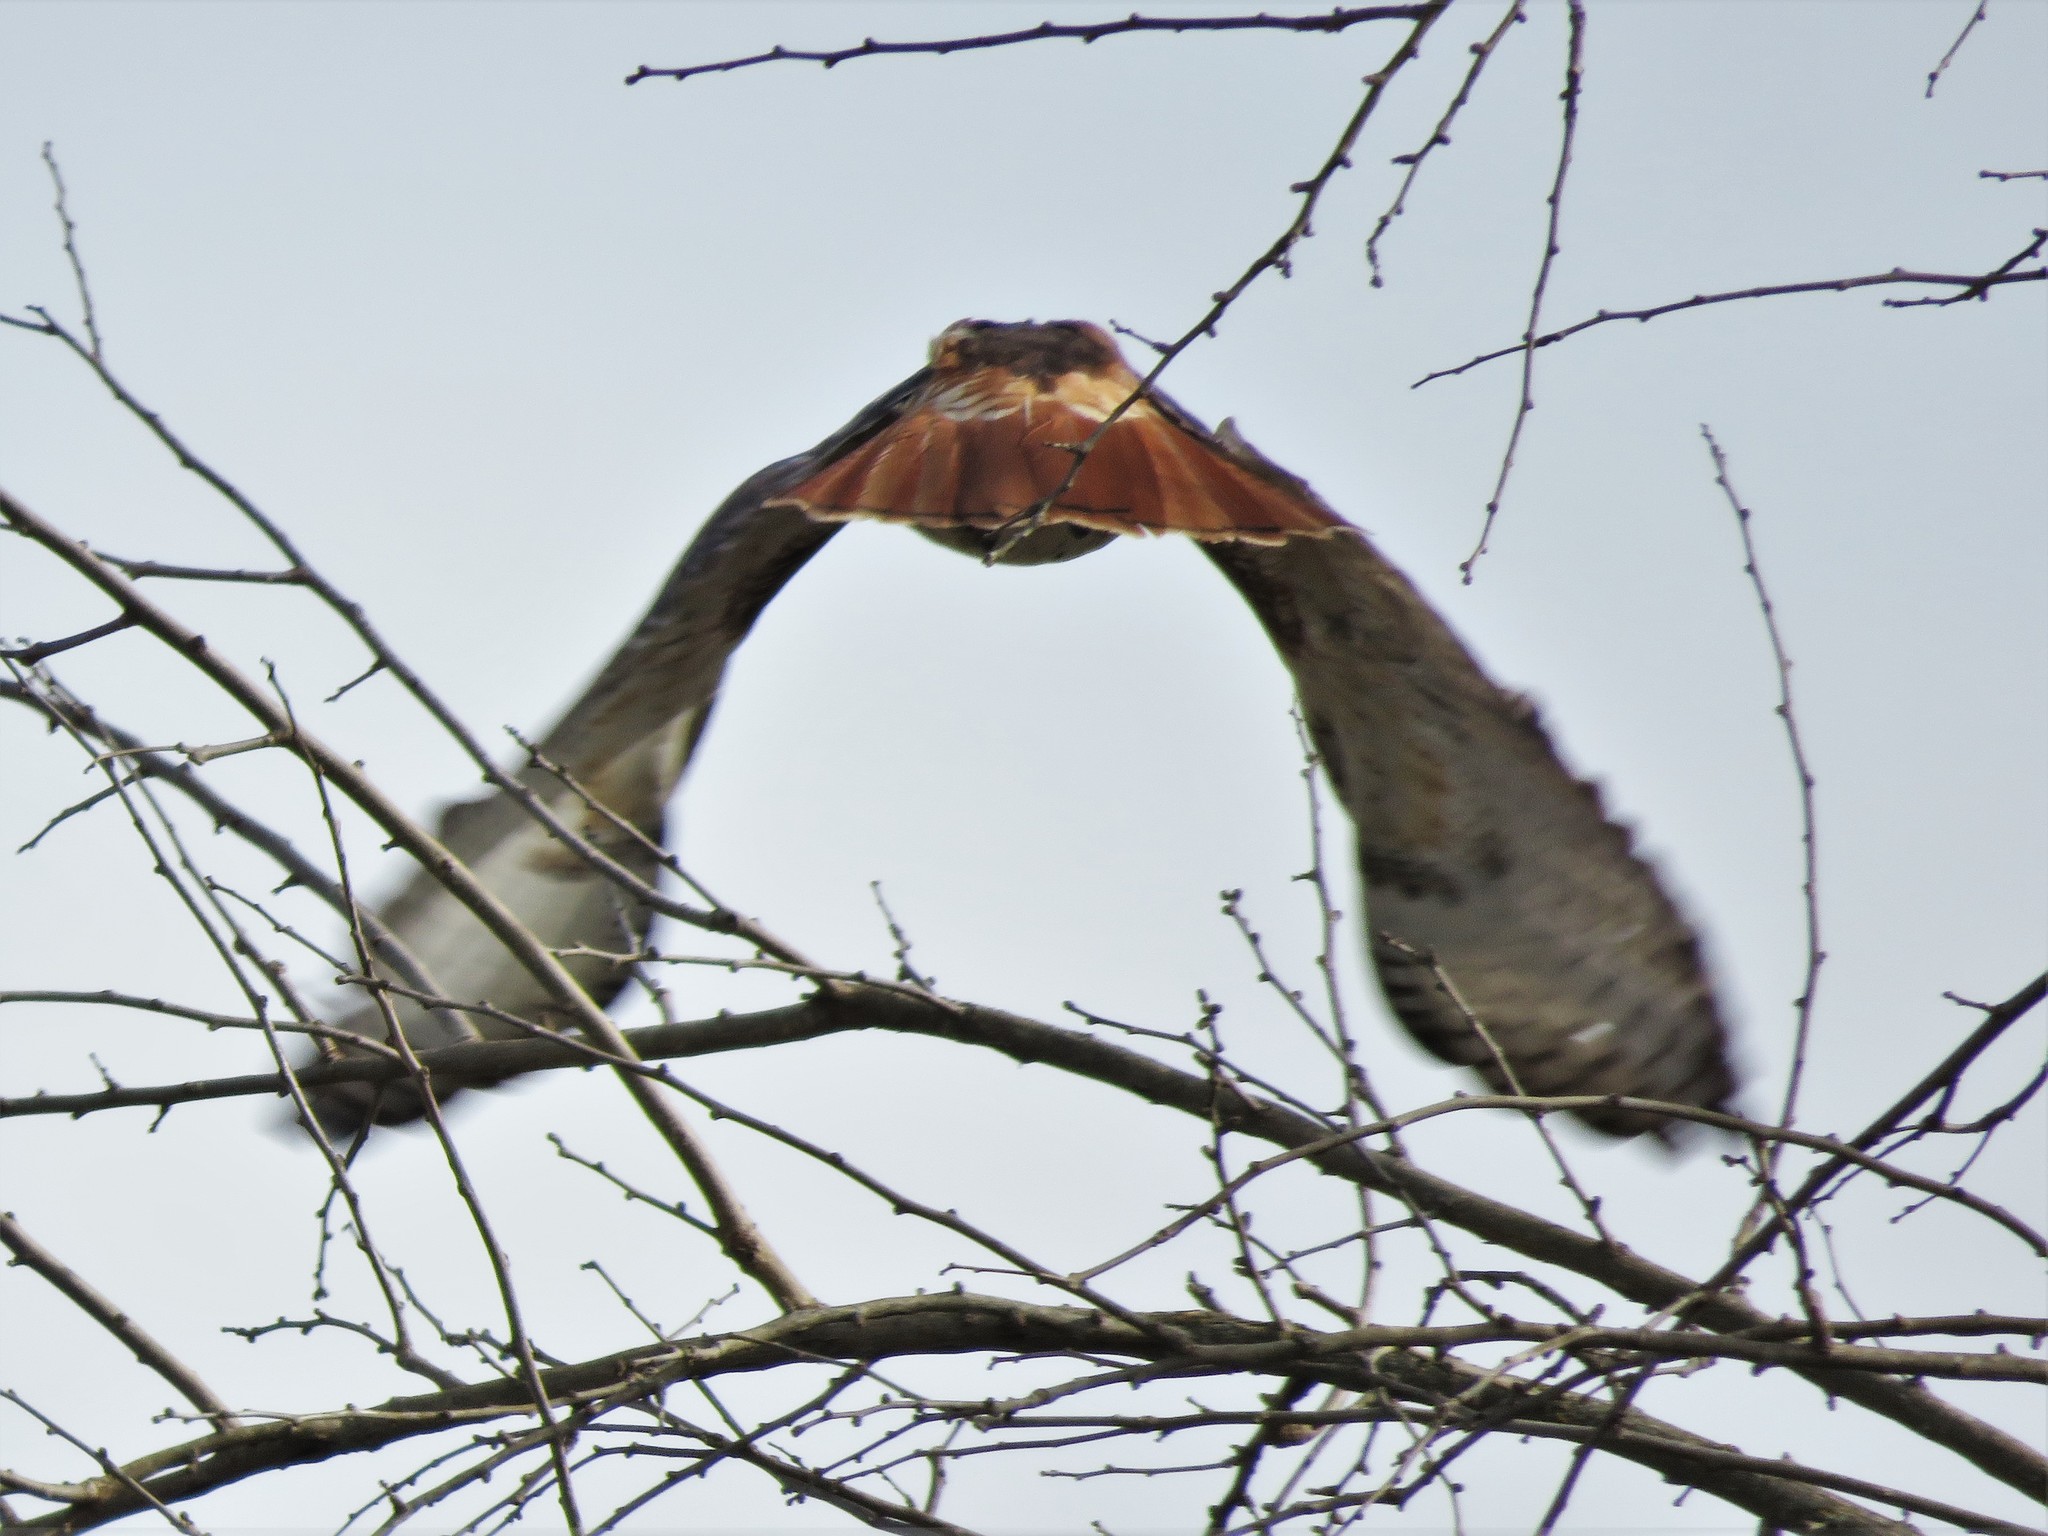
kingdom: Animalia
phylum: Chordata
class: Aves
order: Accipitriformes
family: Accipitridae
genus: Buteo
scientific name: Buteo jamaicensis
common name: Red-tailed hawk
